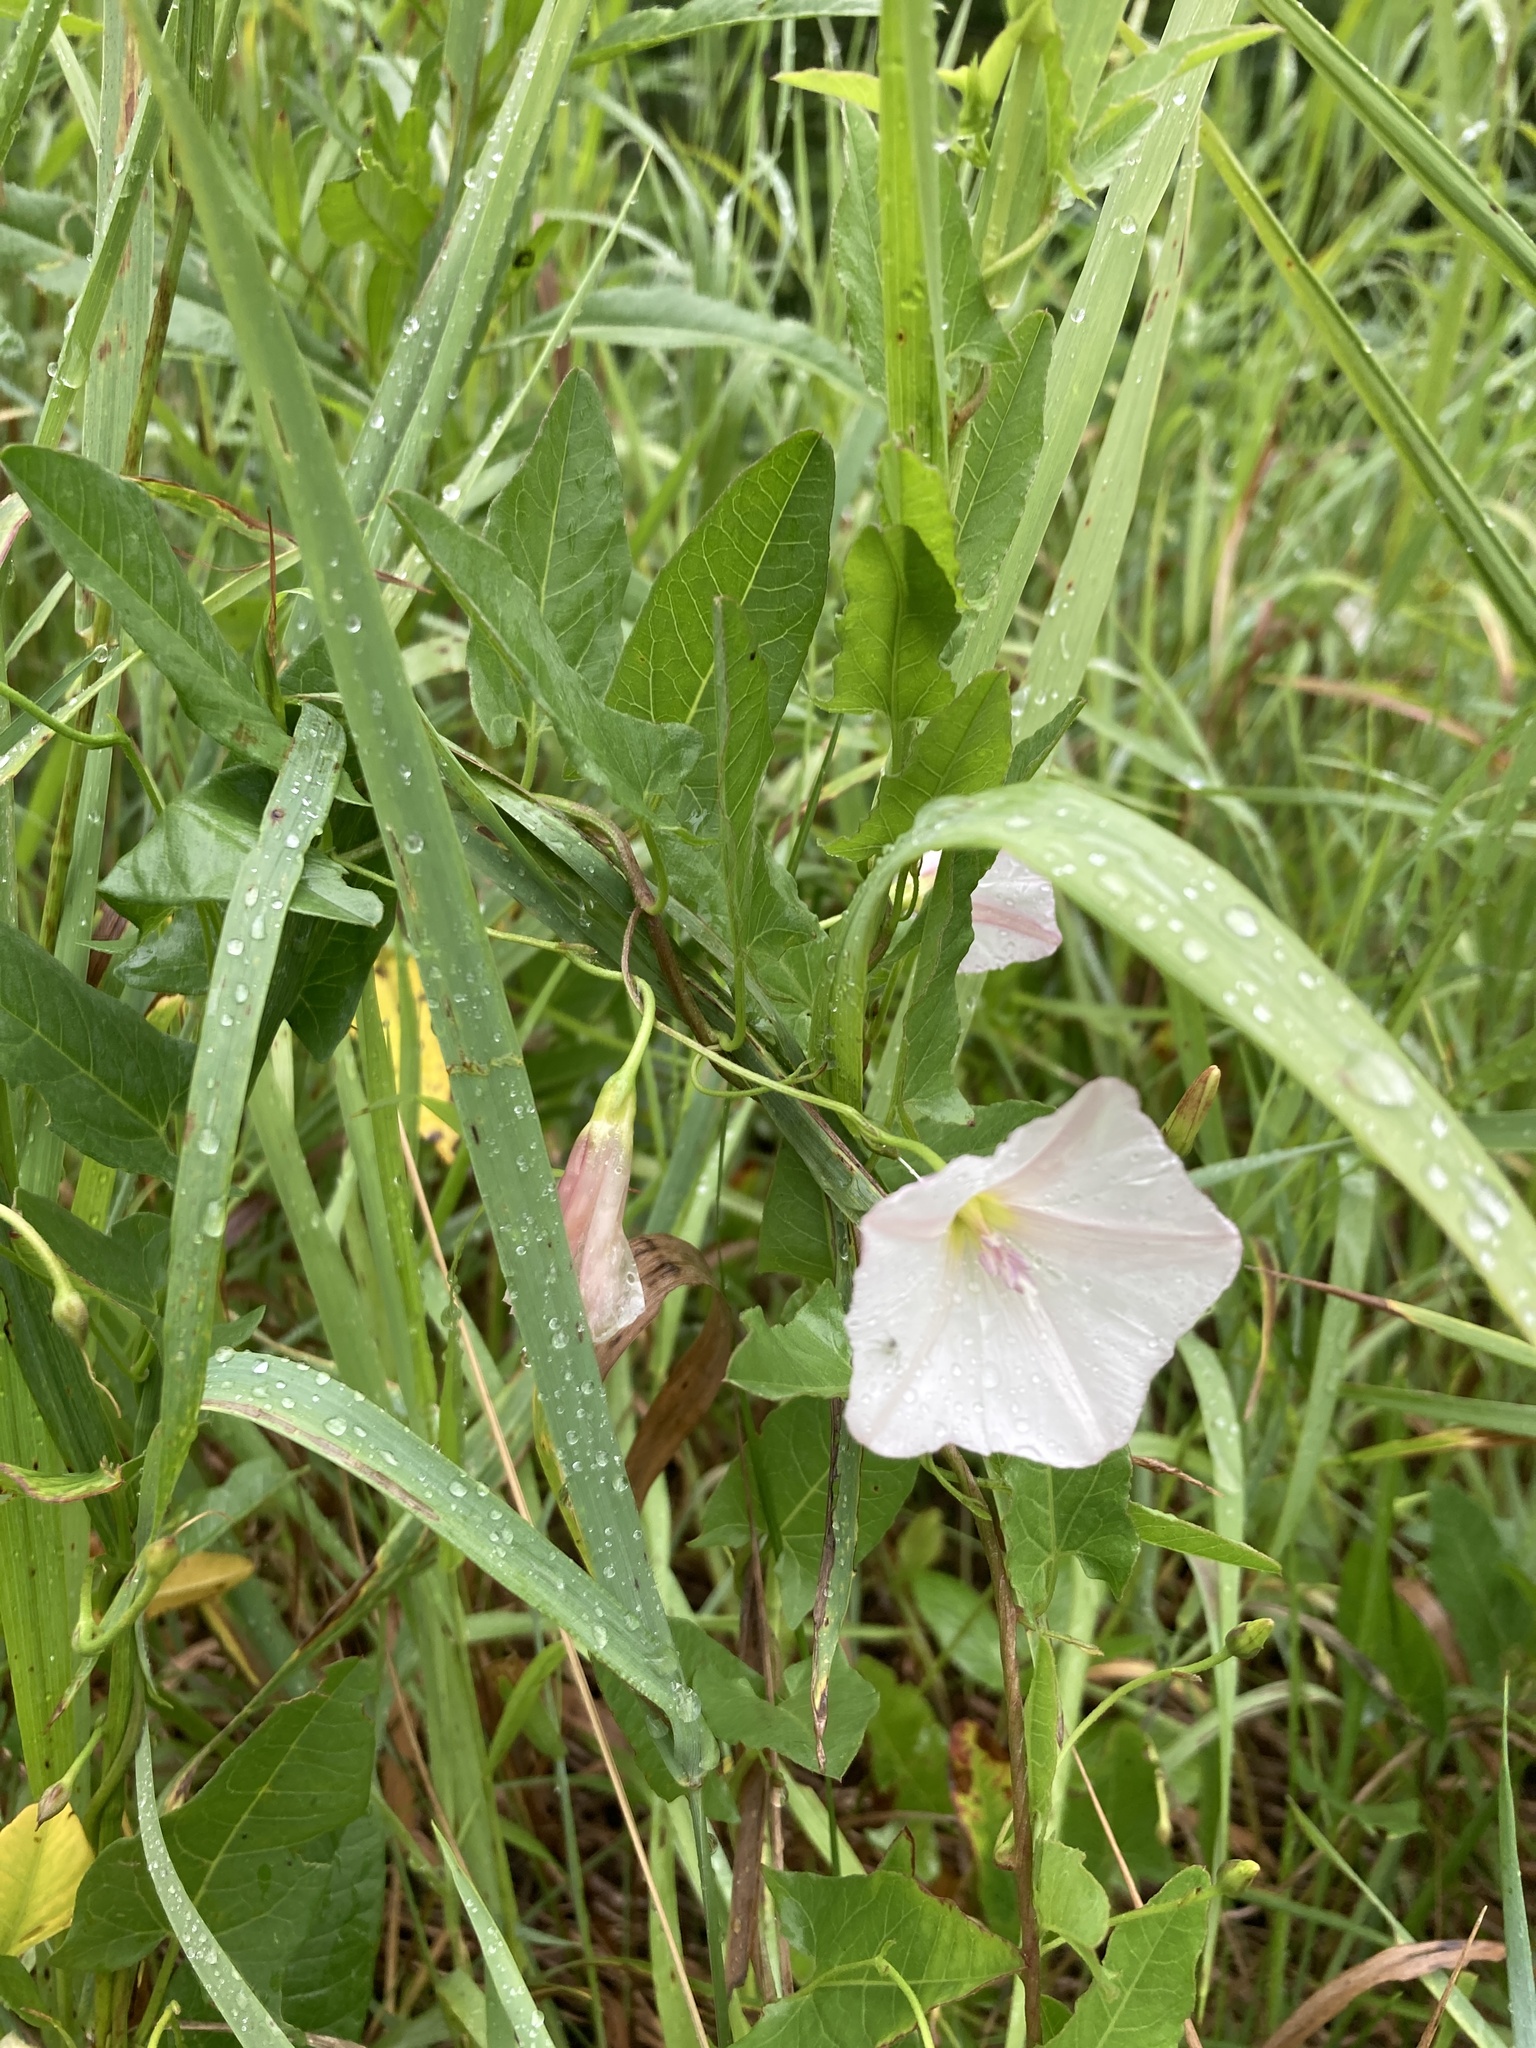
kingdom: Plantae
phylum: Tracheophyta
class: Magnoliopsida
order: Solanales
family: Convolvulaceae
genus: Convolvulus
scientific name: Convolvulus arvensis
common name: Field bindweed
